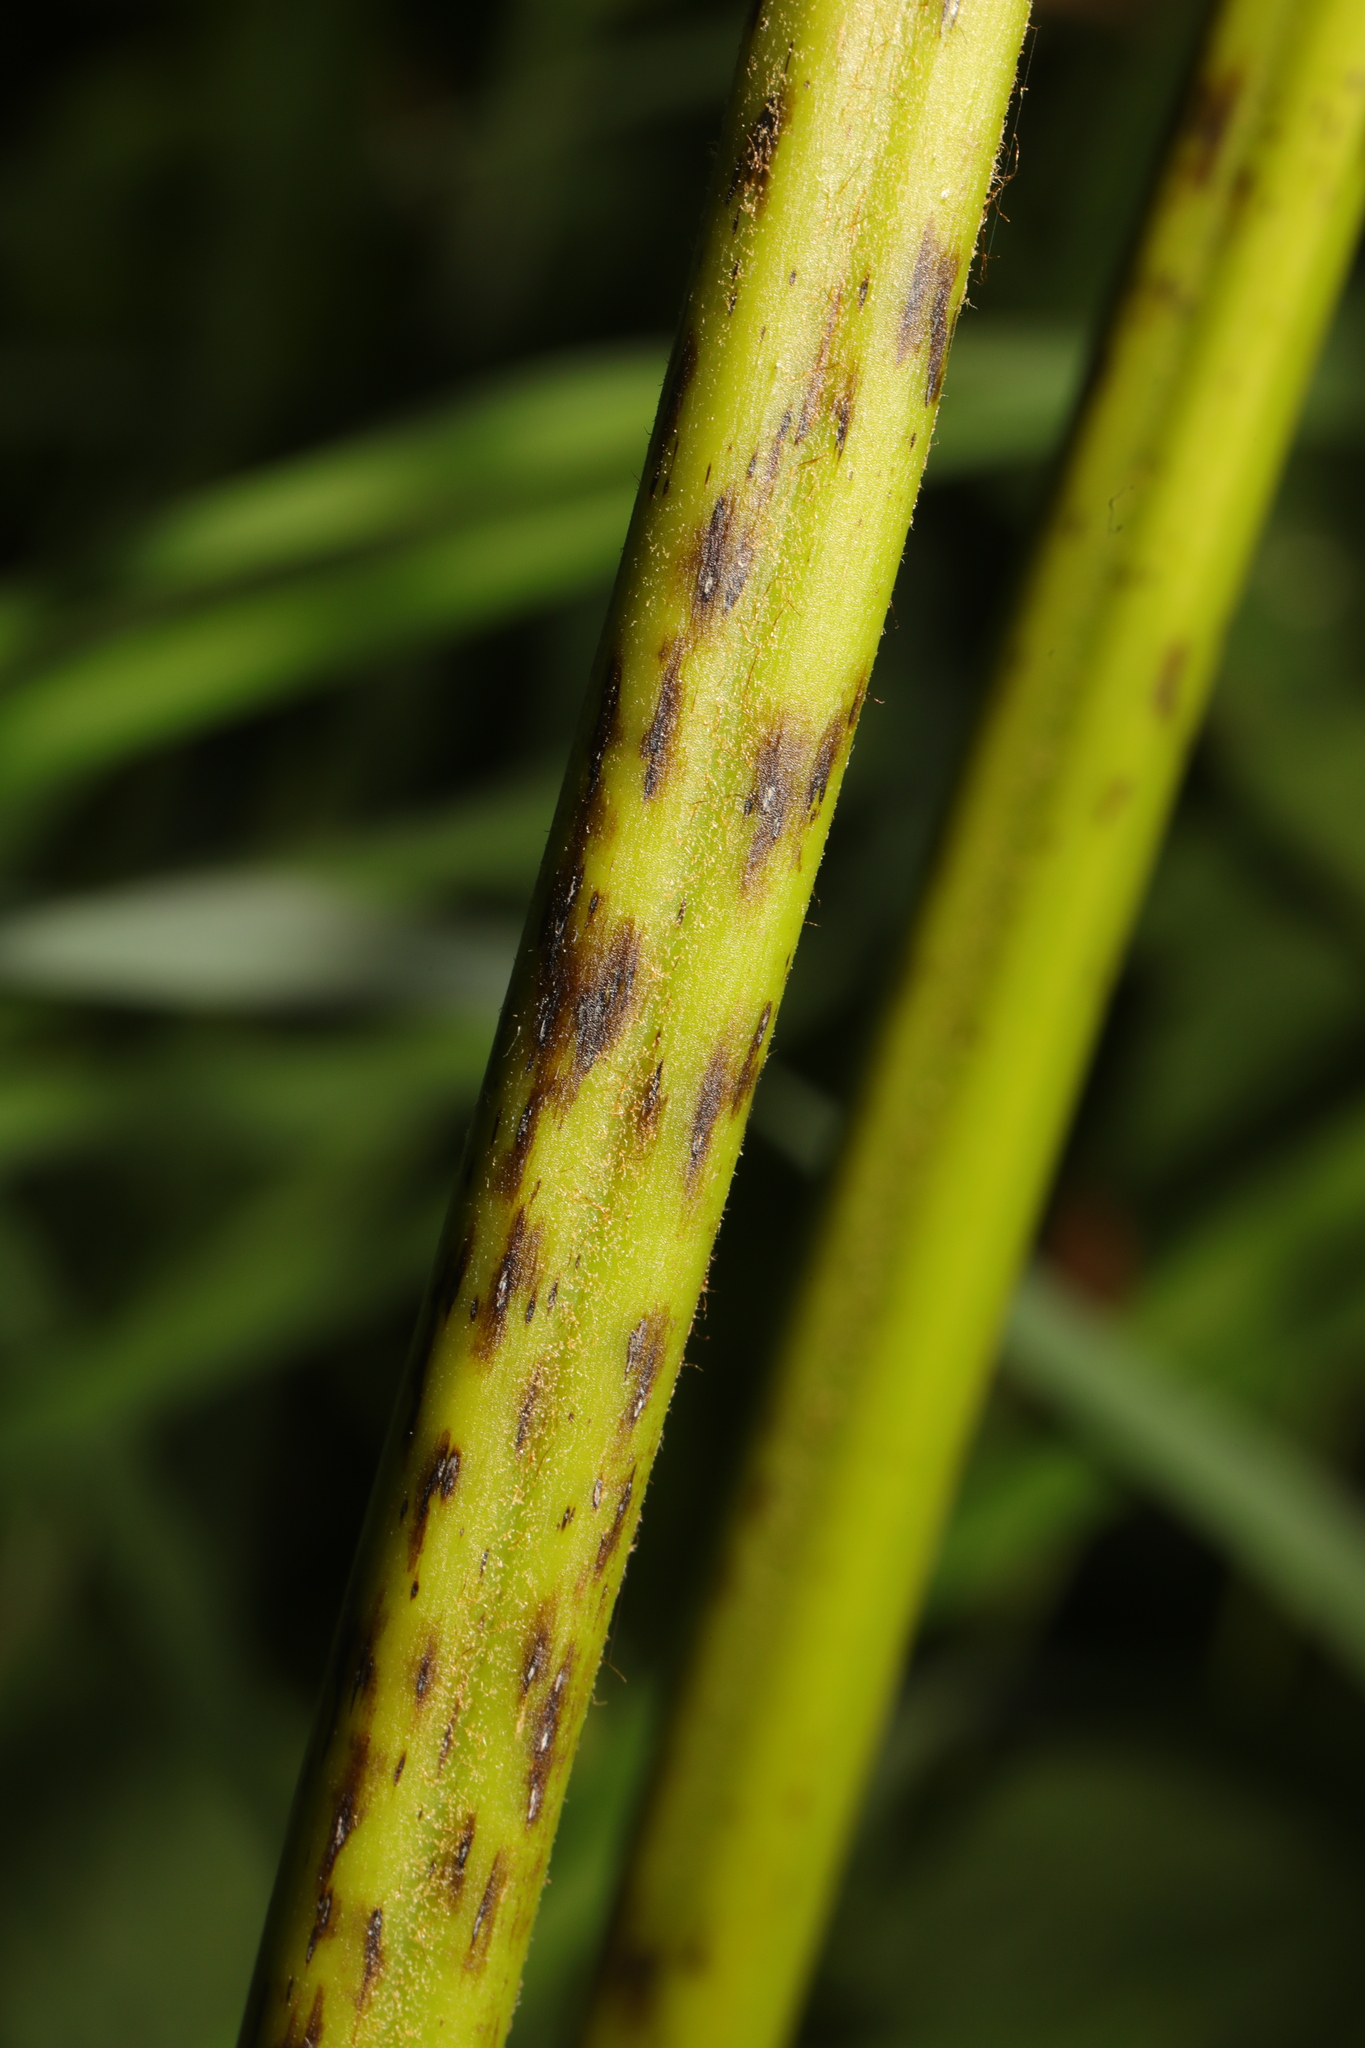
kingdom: Fungi
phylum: Ascomycota
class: Dothideomycetes
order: Pleosporales
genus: Rhopographus
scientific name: Rhopographus filicinus
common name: Bracken map
